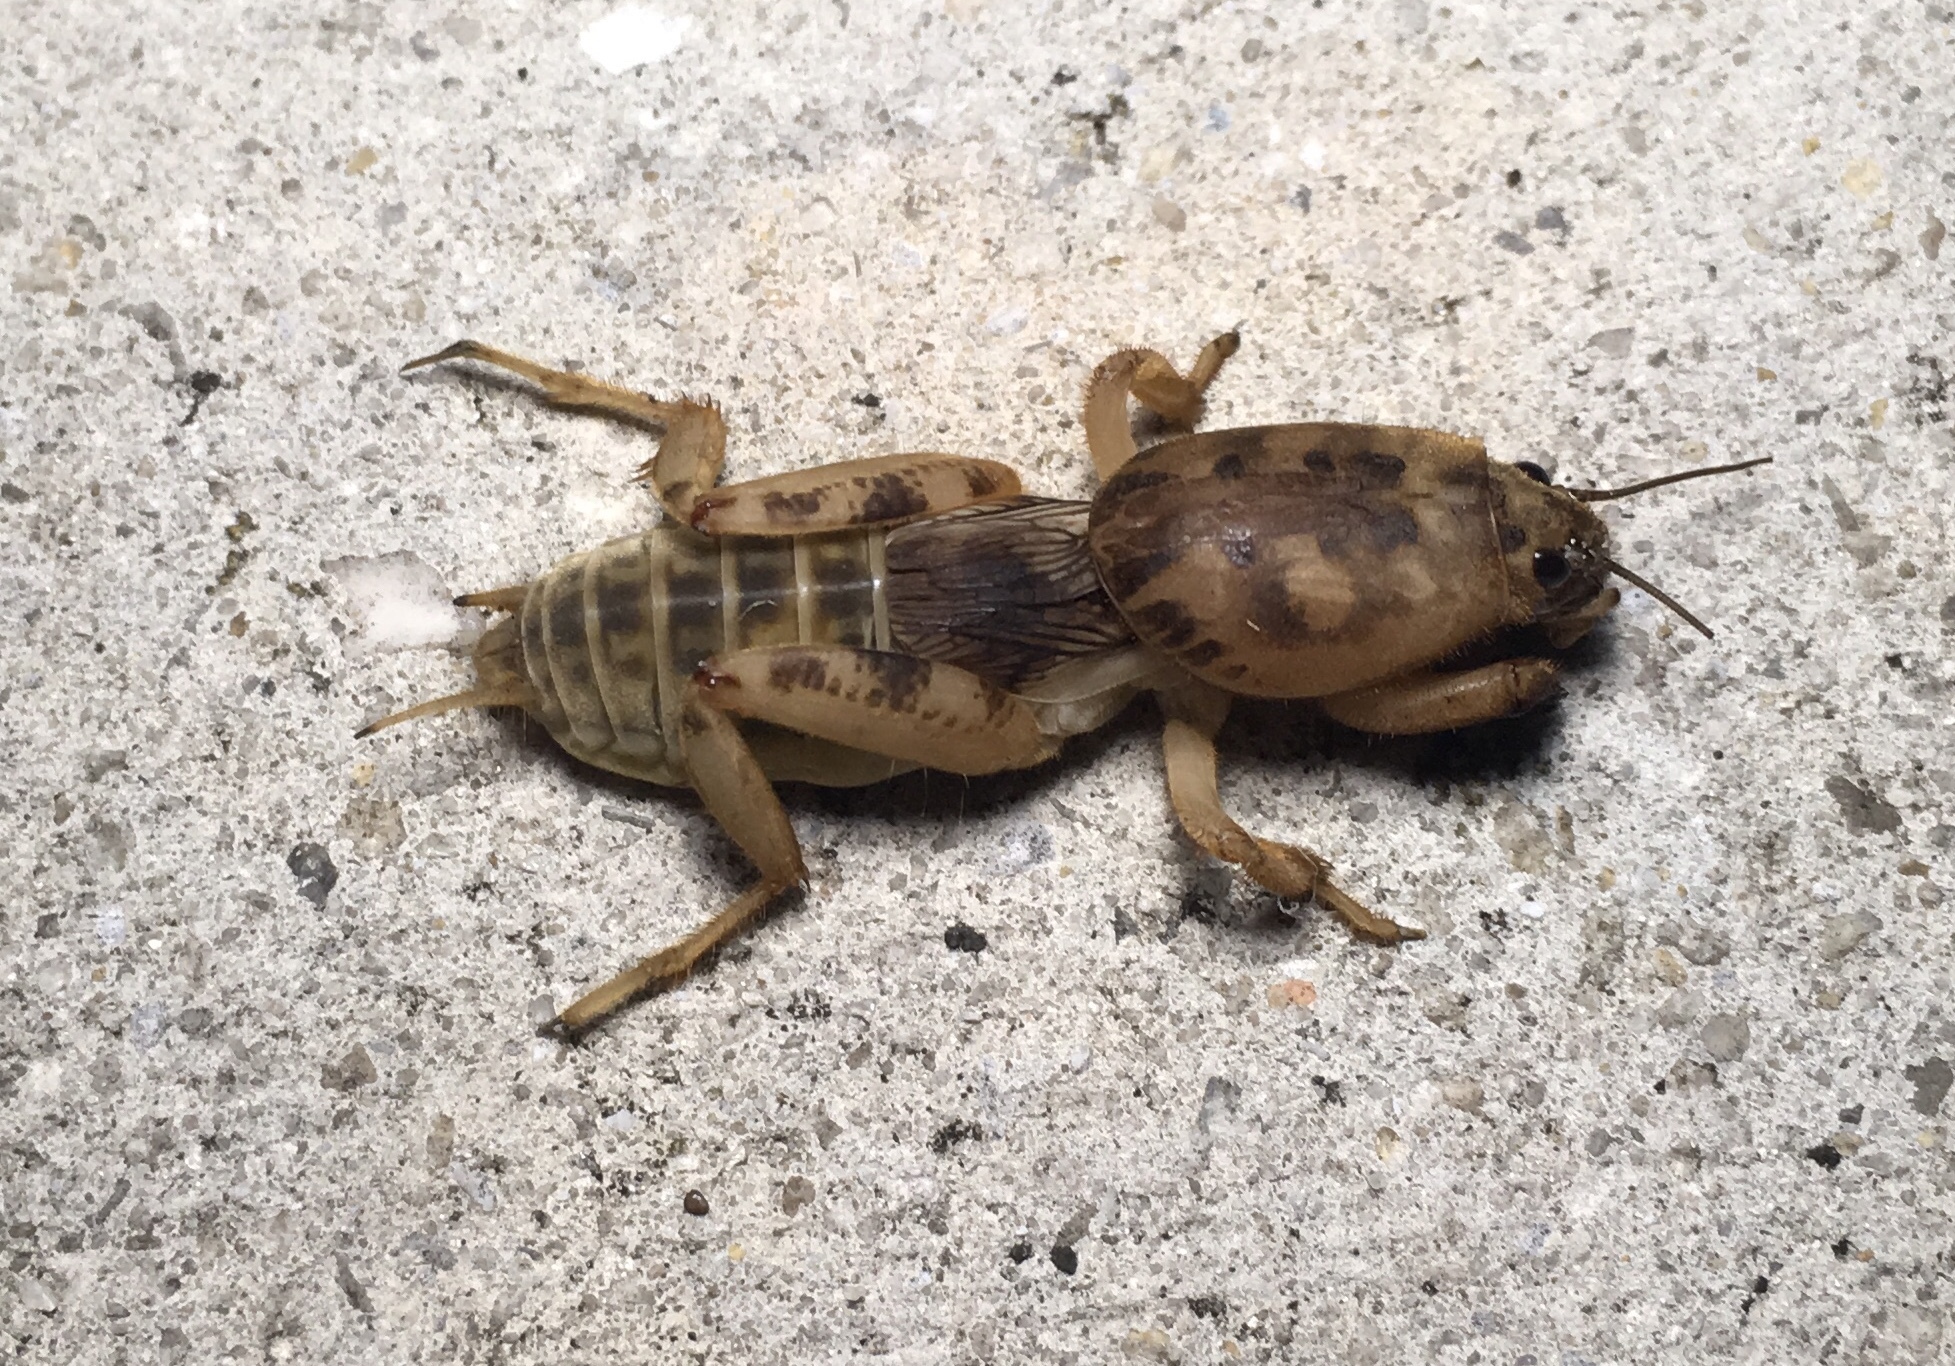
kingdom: Animalia
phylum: Arthropoda
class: Insecta
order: Orthoptera
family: Gryllotalpidae
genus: Neoscapteriscus
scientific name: Neoscapteriscus abbreviatus
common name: Short-winged mole cricket
